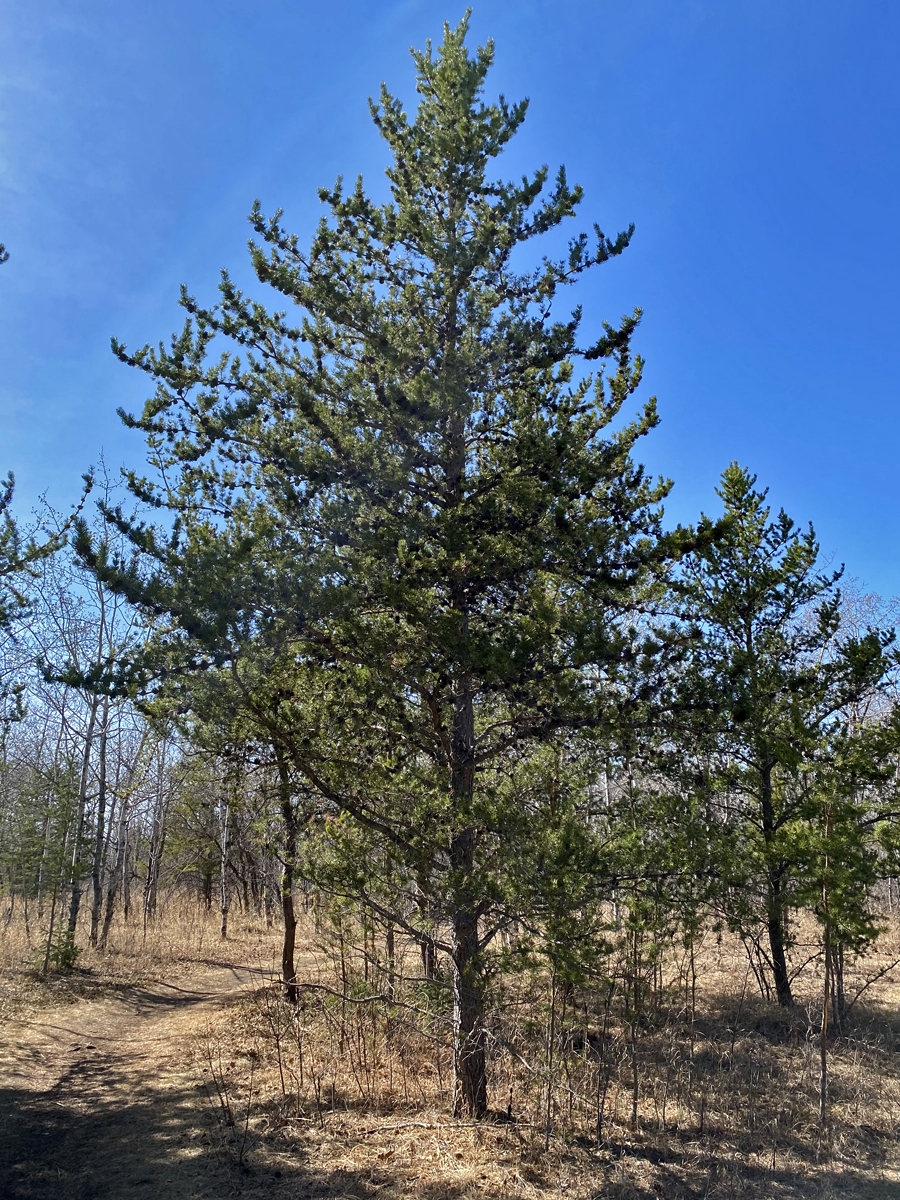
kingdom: Plantae
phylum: Tracheophyta
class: Pinopsida
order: Pinales
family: Pinaceae
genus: Pinus
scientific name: Pinus banksiana
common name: Jack pine
